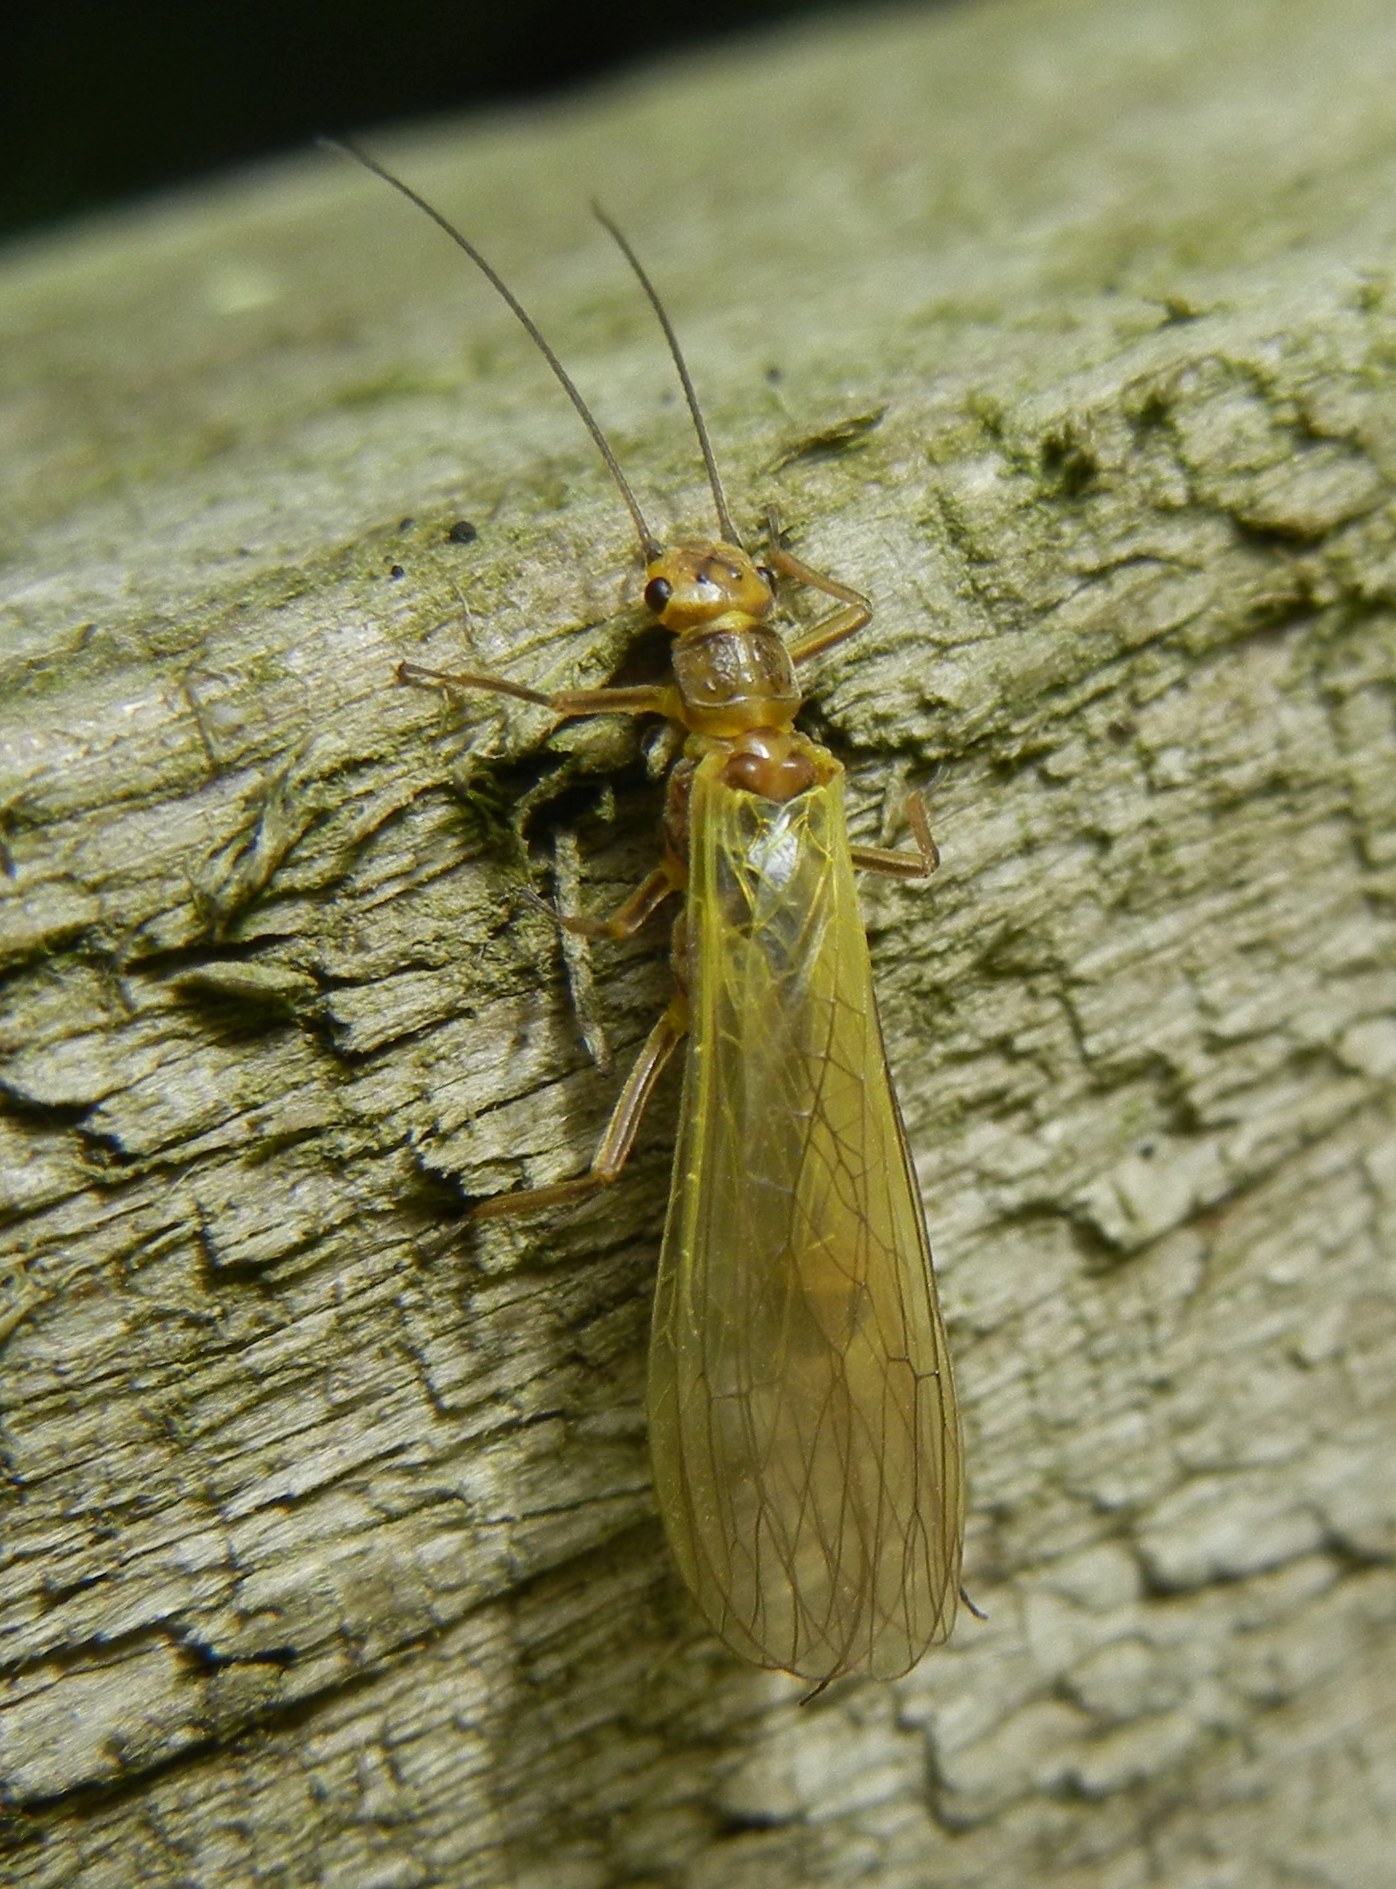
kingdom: Animalia
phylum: Arthropoda
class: Insecta
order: Plecoptera
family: Perlodidae
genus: Isoperla
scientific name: Isoperla grammatica
